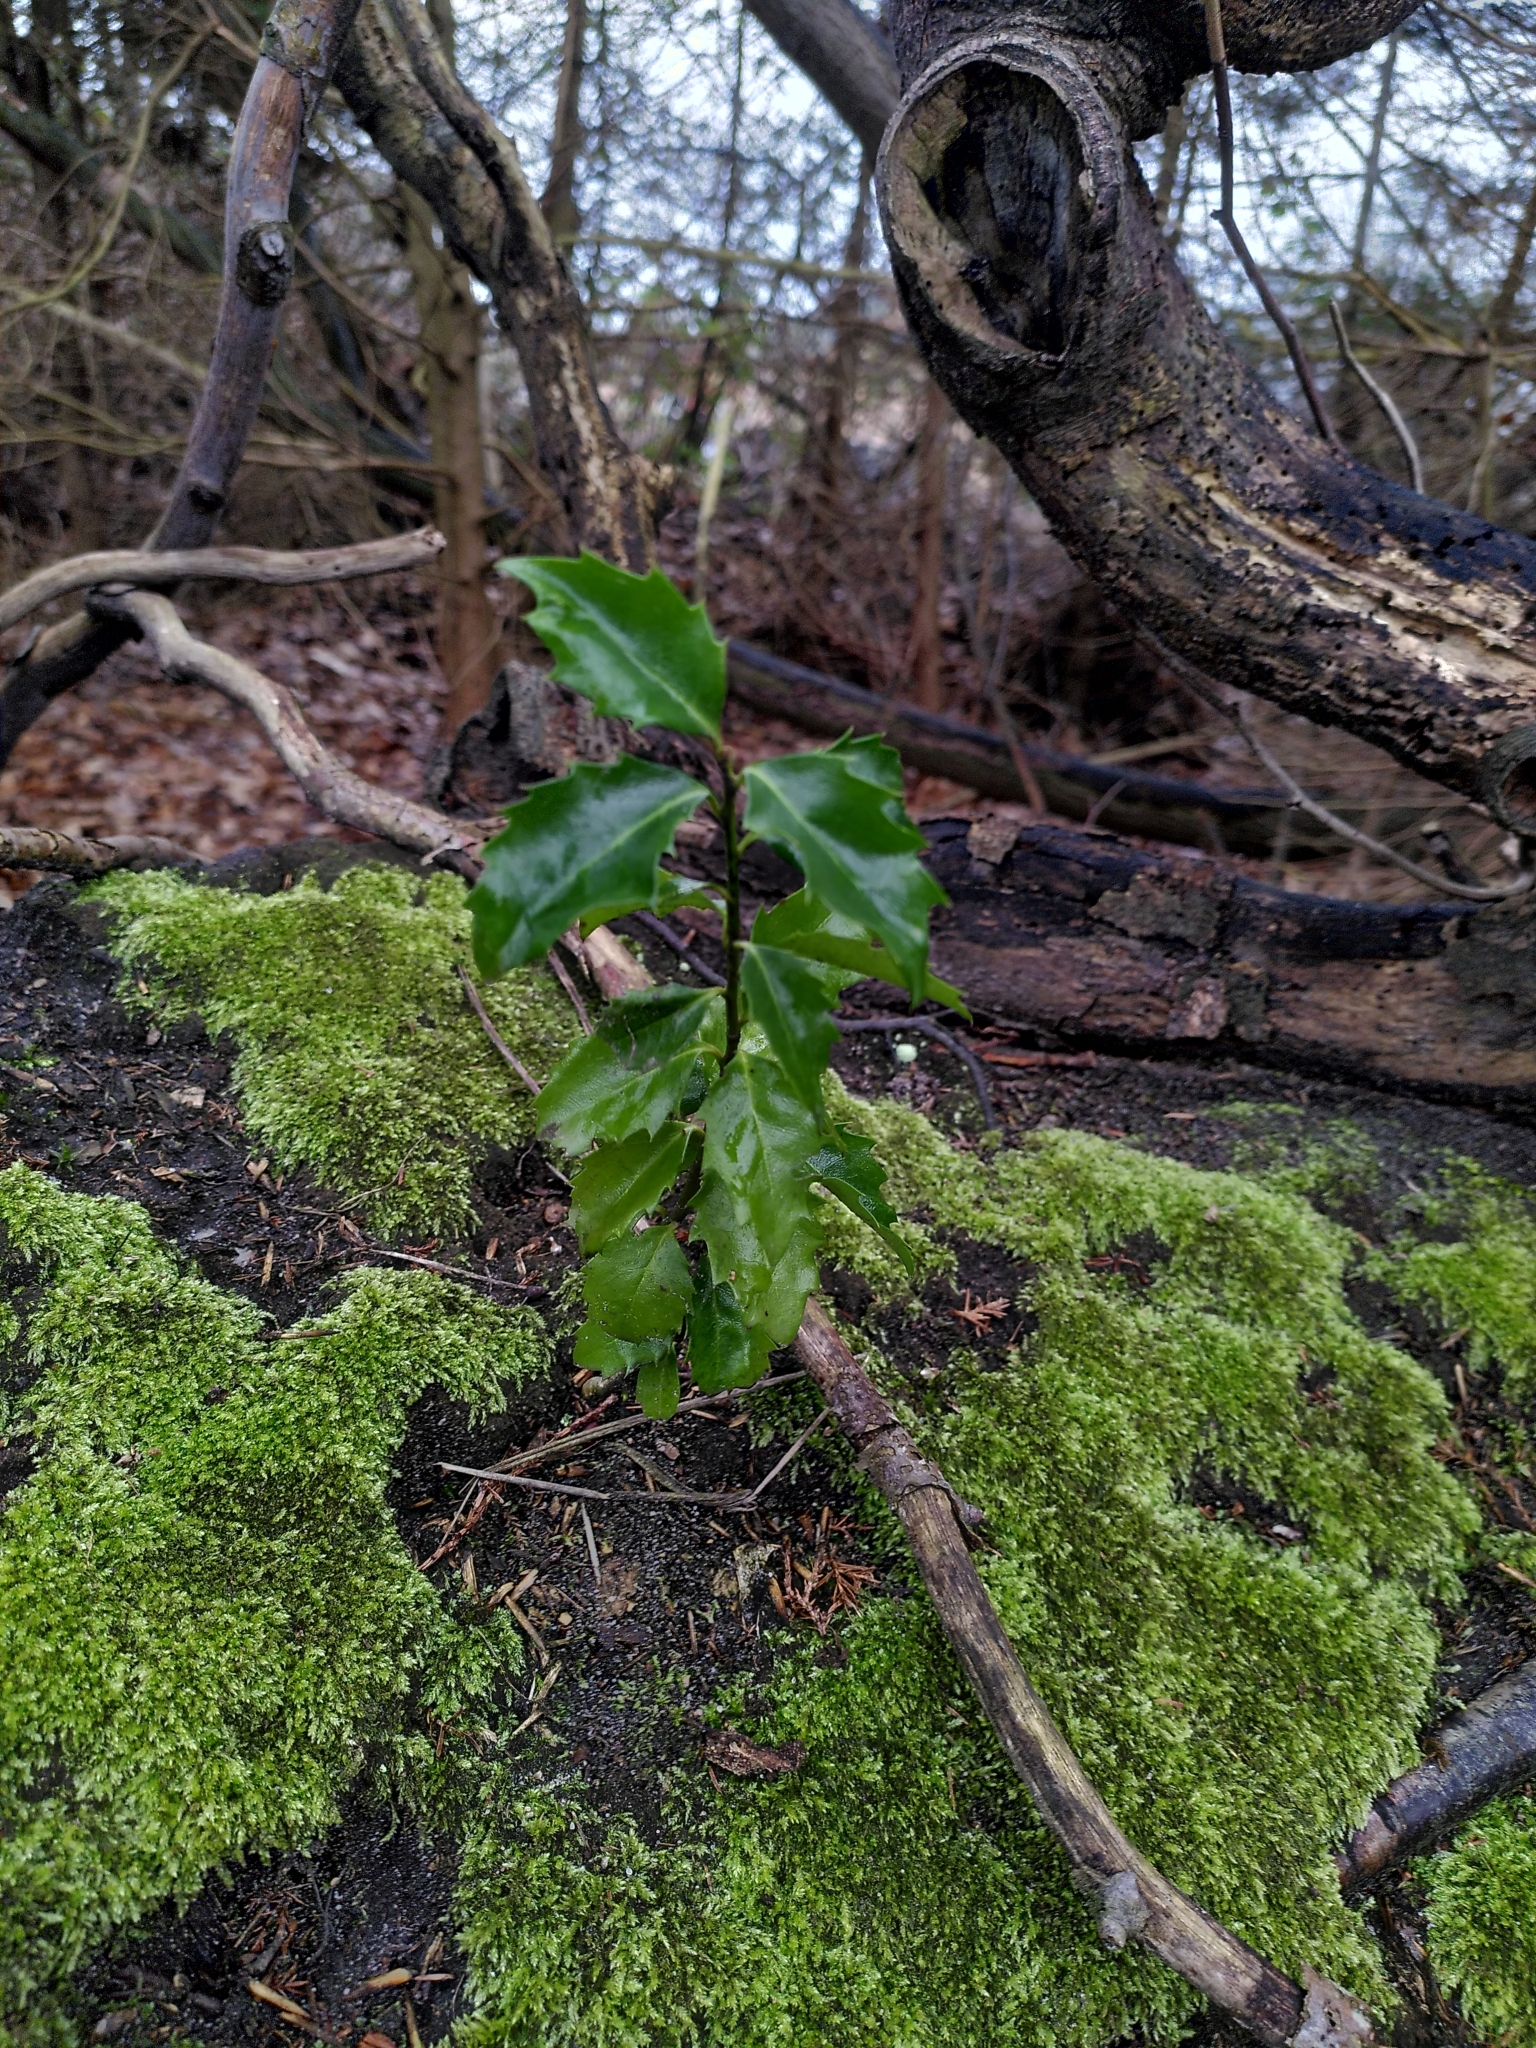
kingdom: Plantae
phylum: Tracheophyta
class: Magnoliopsida
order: Aquifoliales
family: Aquifoliaceae
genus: Ilex
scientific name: Ilex aquifolium
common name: English holly
